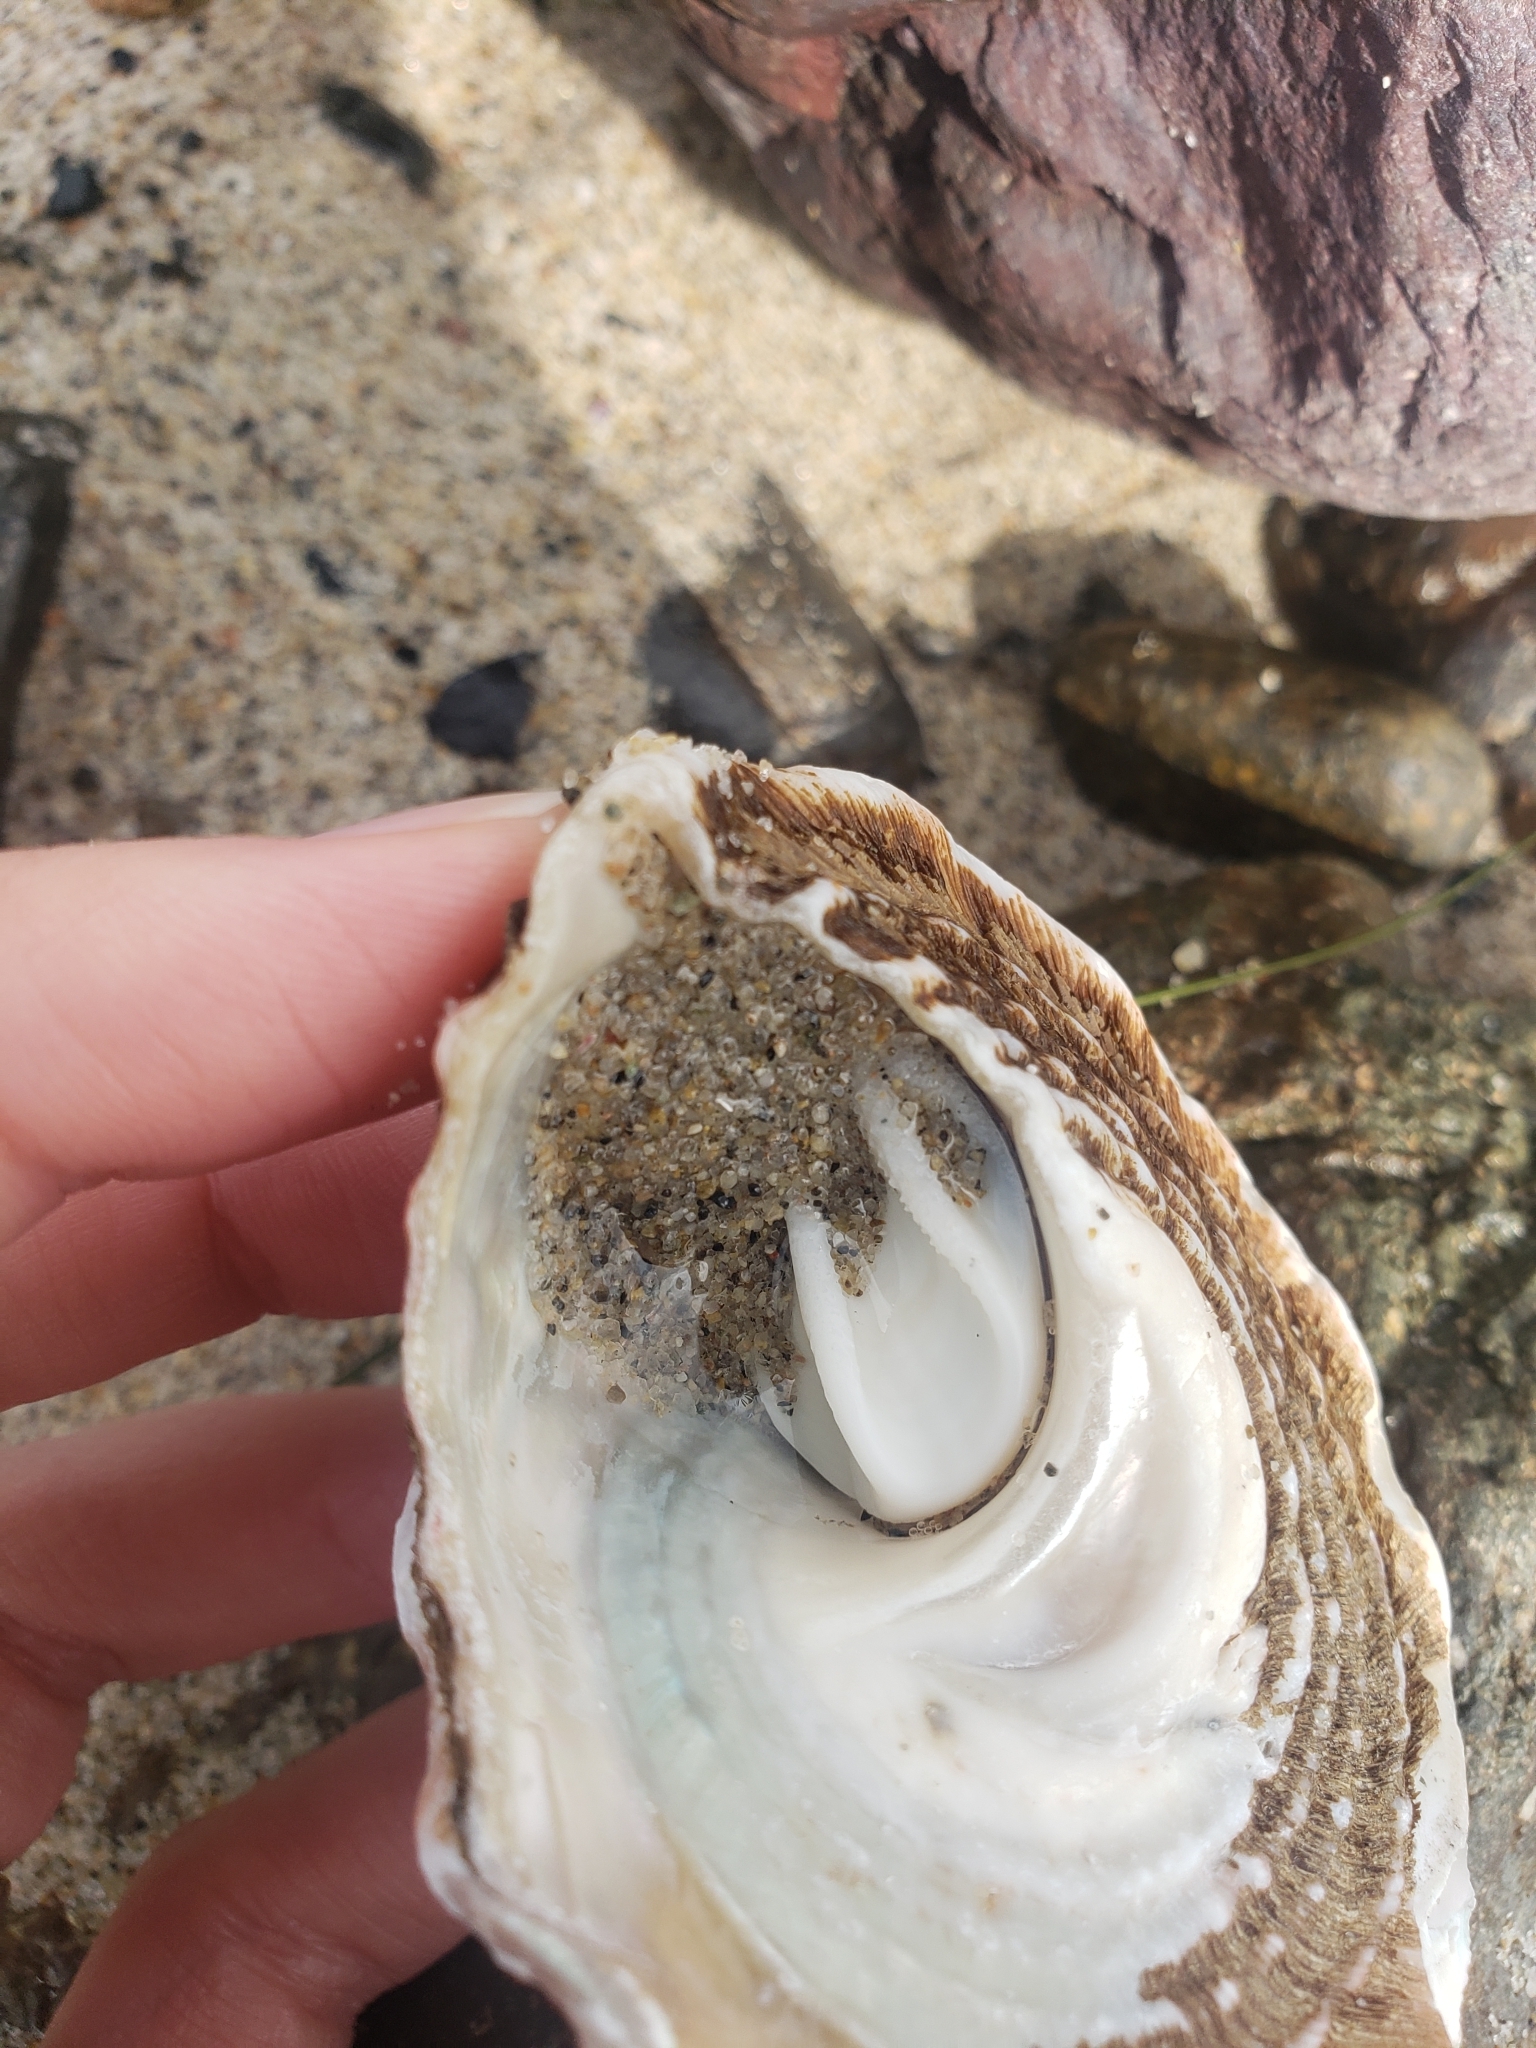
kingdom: Animalia
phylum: Mollusca
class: Gastropoda
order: Trochida
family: Turbinidae
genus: Megastraea
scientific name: Megastraea undosa
